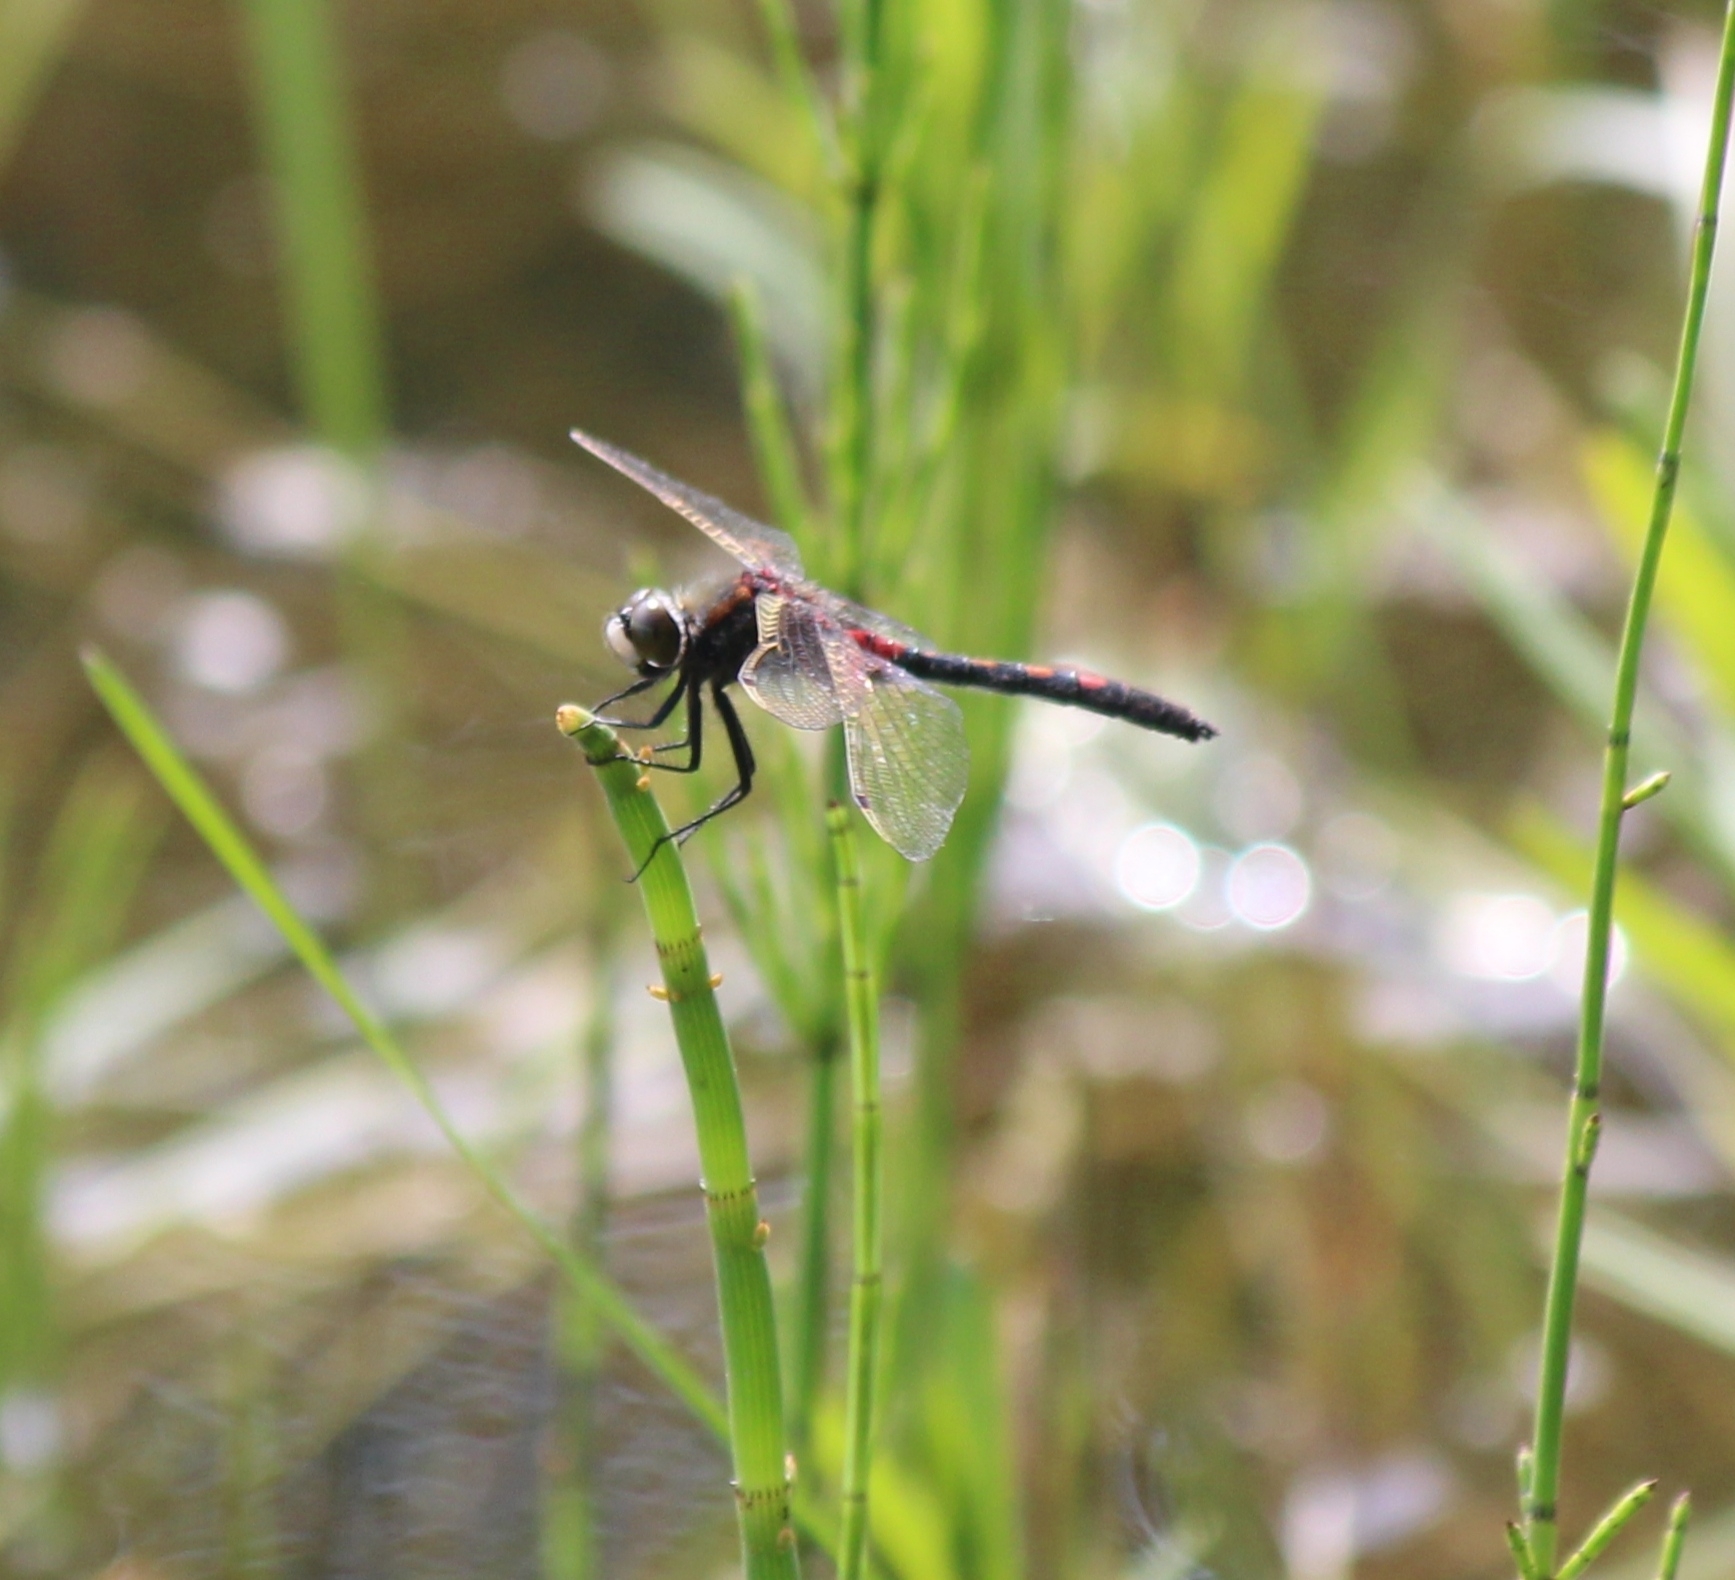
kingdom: Animalia
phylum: Arthropoda
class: Insecta
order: Odonata
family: Libellulidae
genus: Leucorrhinia
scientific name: Leucorrhinia rubicunda
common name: Ruby whiteface
